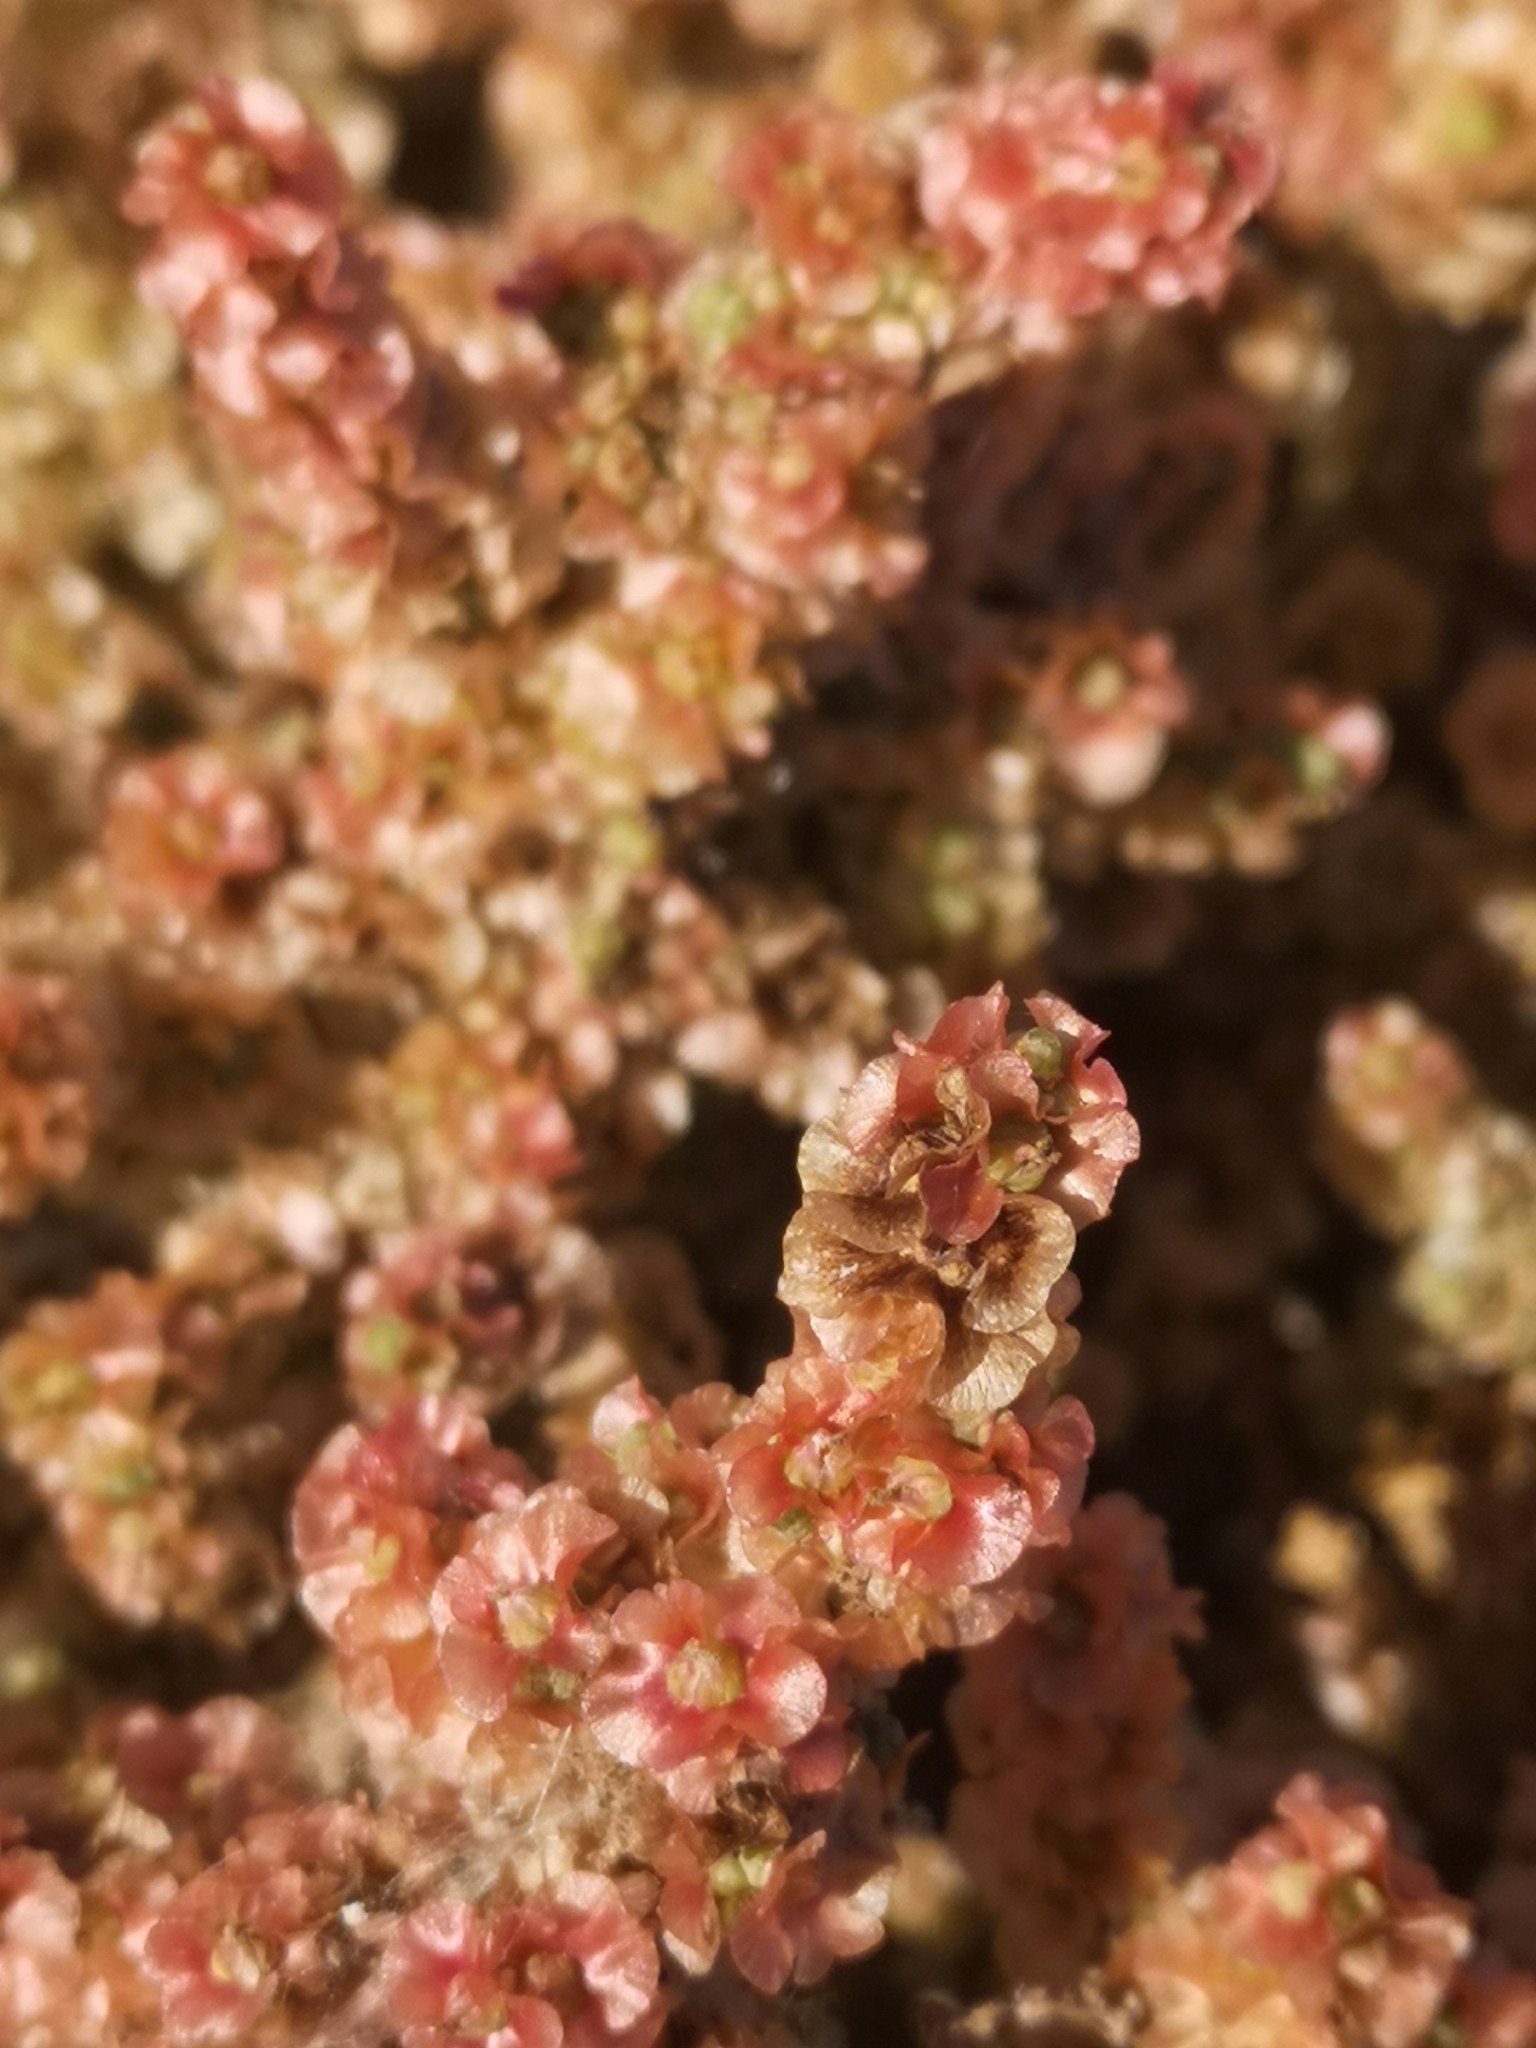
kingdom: Plantae
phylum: Tracheophyta
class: Magnoliopsida
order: Caryophyllales
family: Amaranthaceae
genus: Nitrosalsola
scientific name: Nitrosalsola vermiculata
